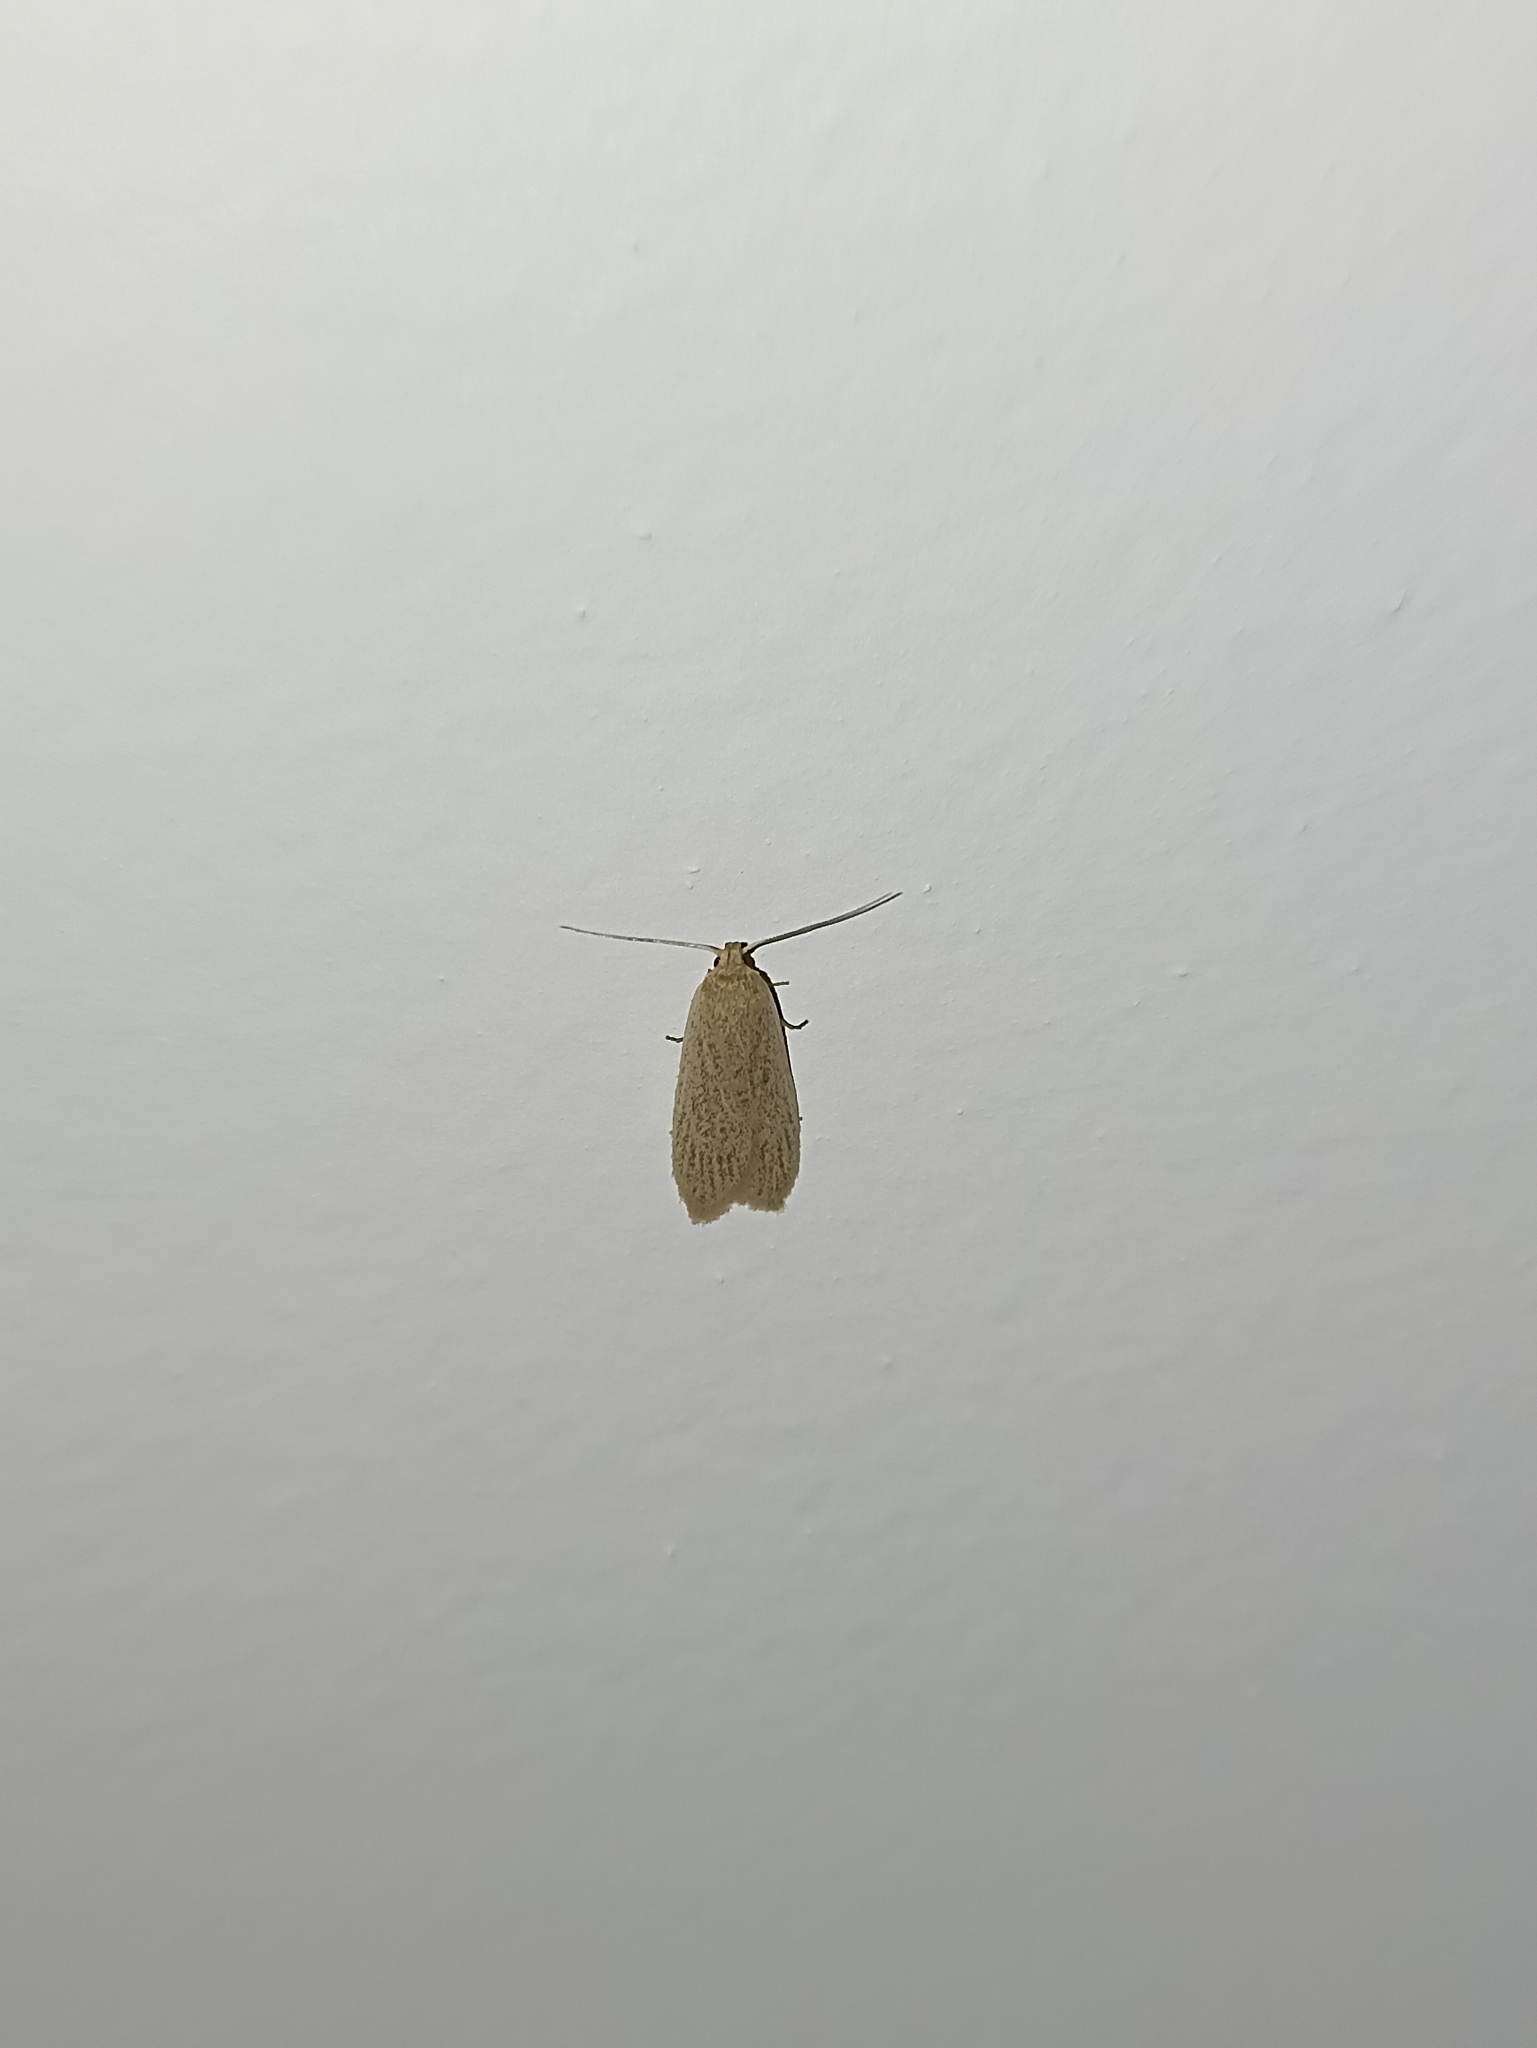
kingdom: Animalia
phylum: Arthropoda
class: Insecta
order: Lepidoptera
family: Xyloryctidae
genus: Scieropepla
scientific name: Scieropepla typhicola
